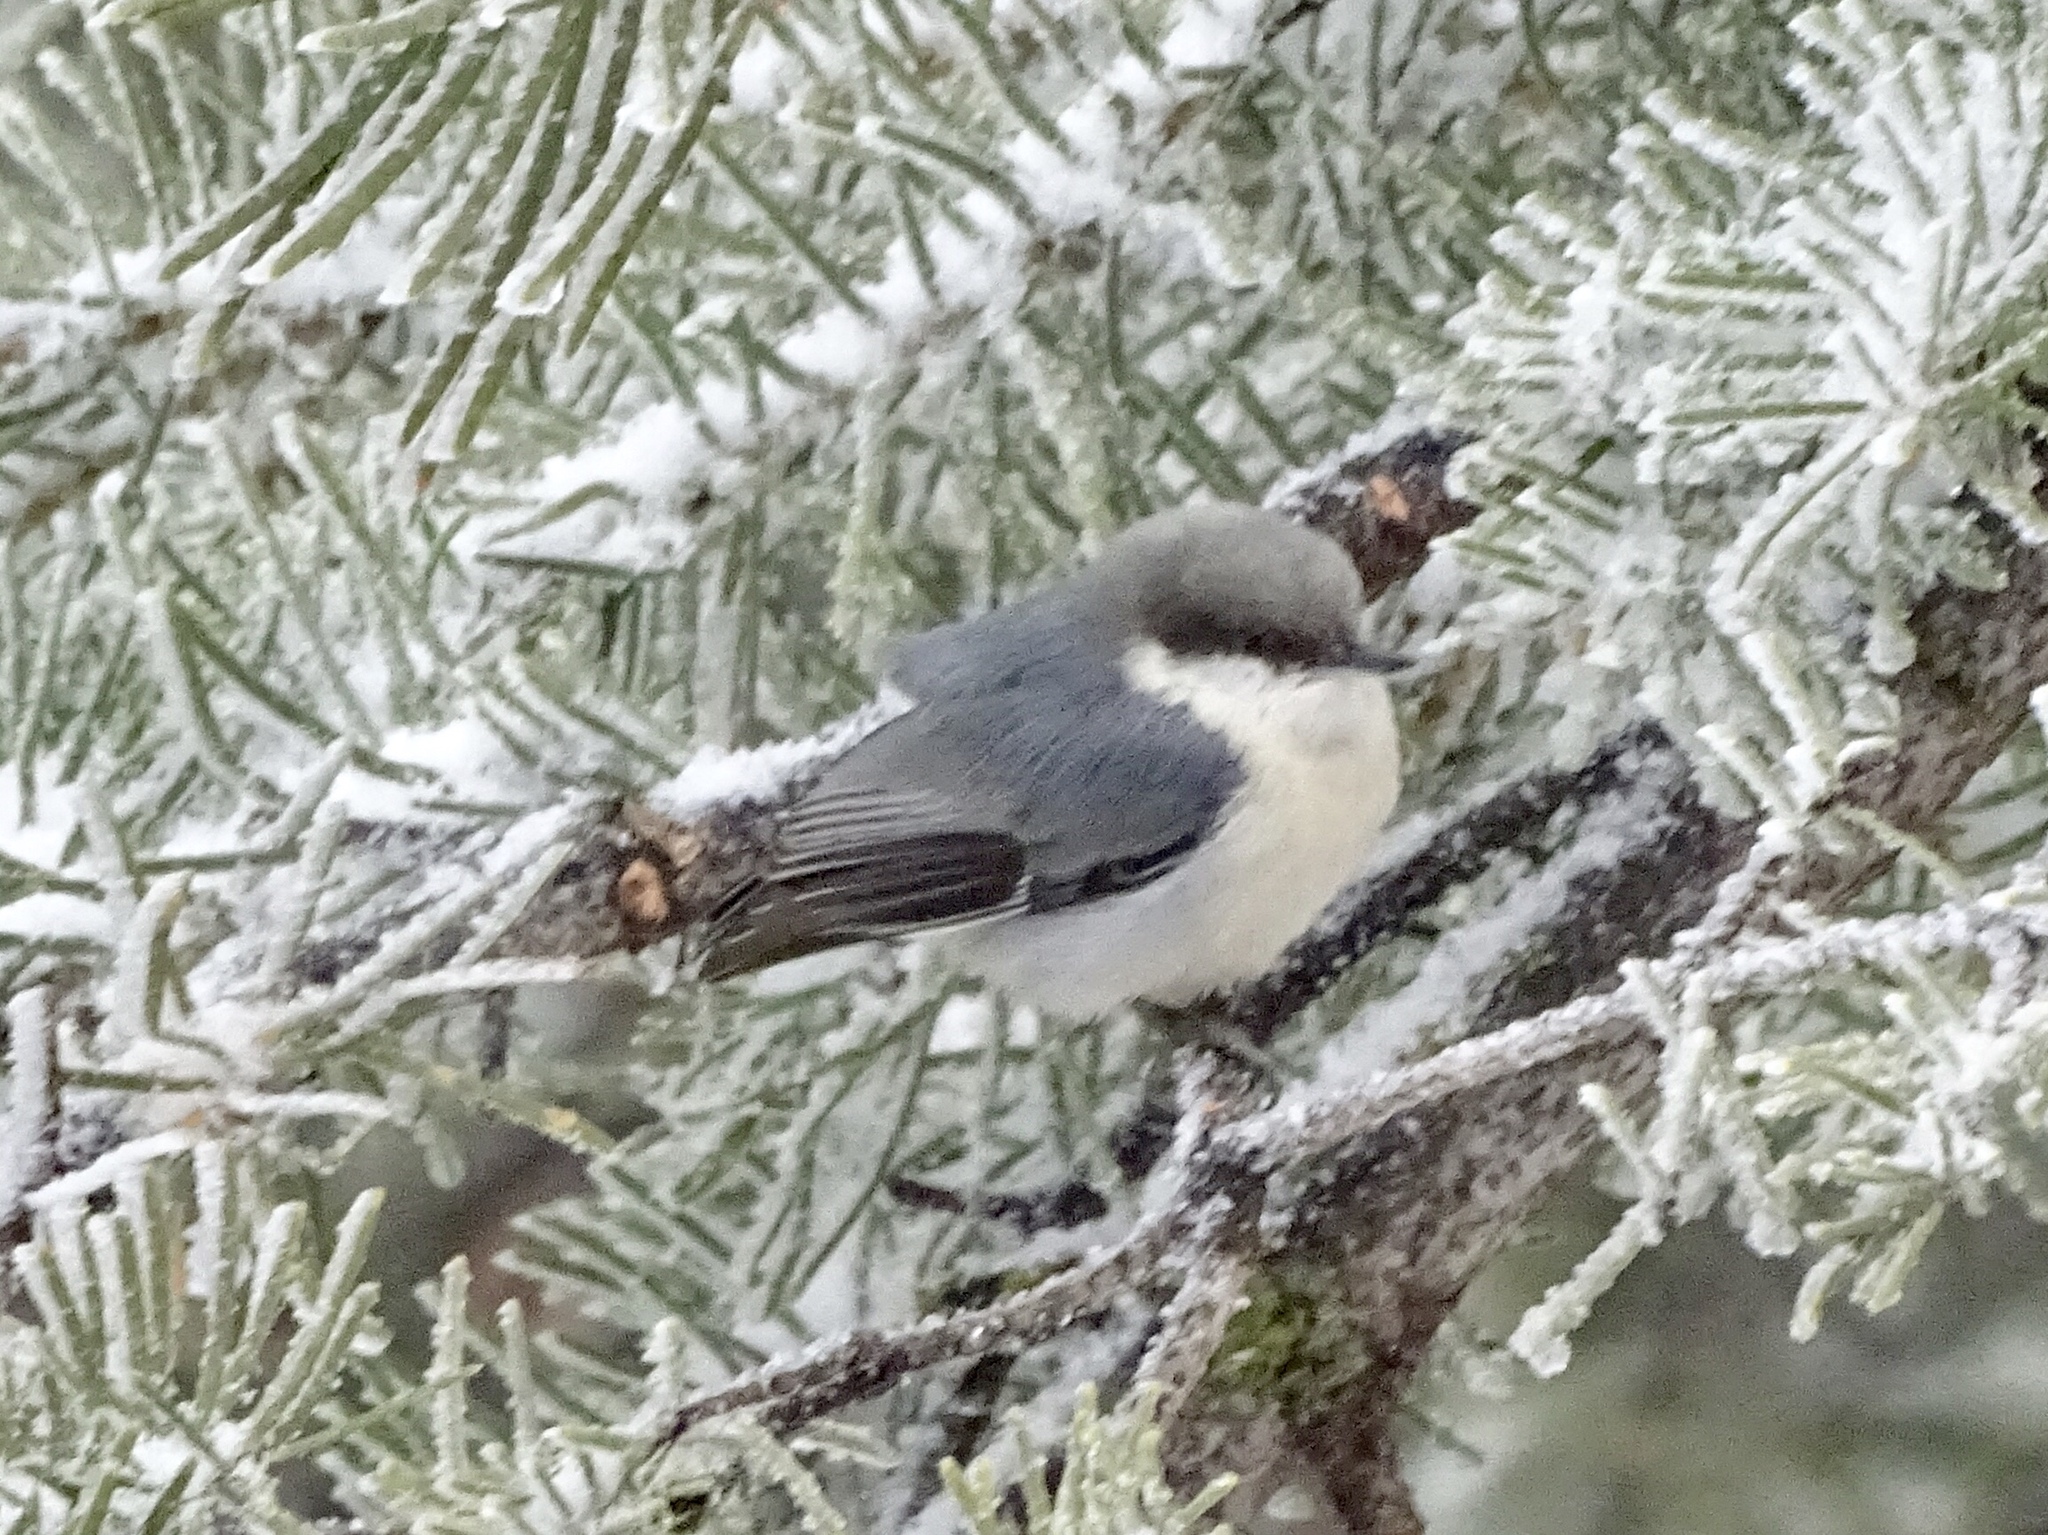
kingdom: Animalia
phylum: Chordata
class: Aves
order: Passeriformes
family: Sittidae
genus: Sitta
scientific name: Sitta pygmaea
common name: Pygmy nuthatch
